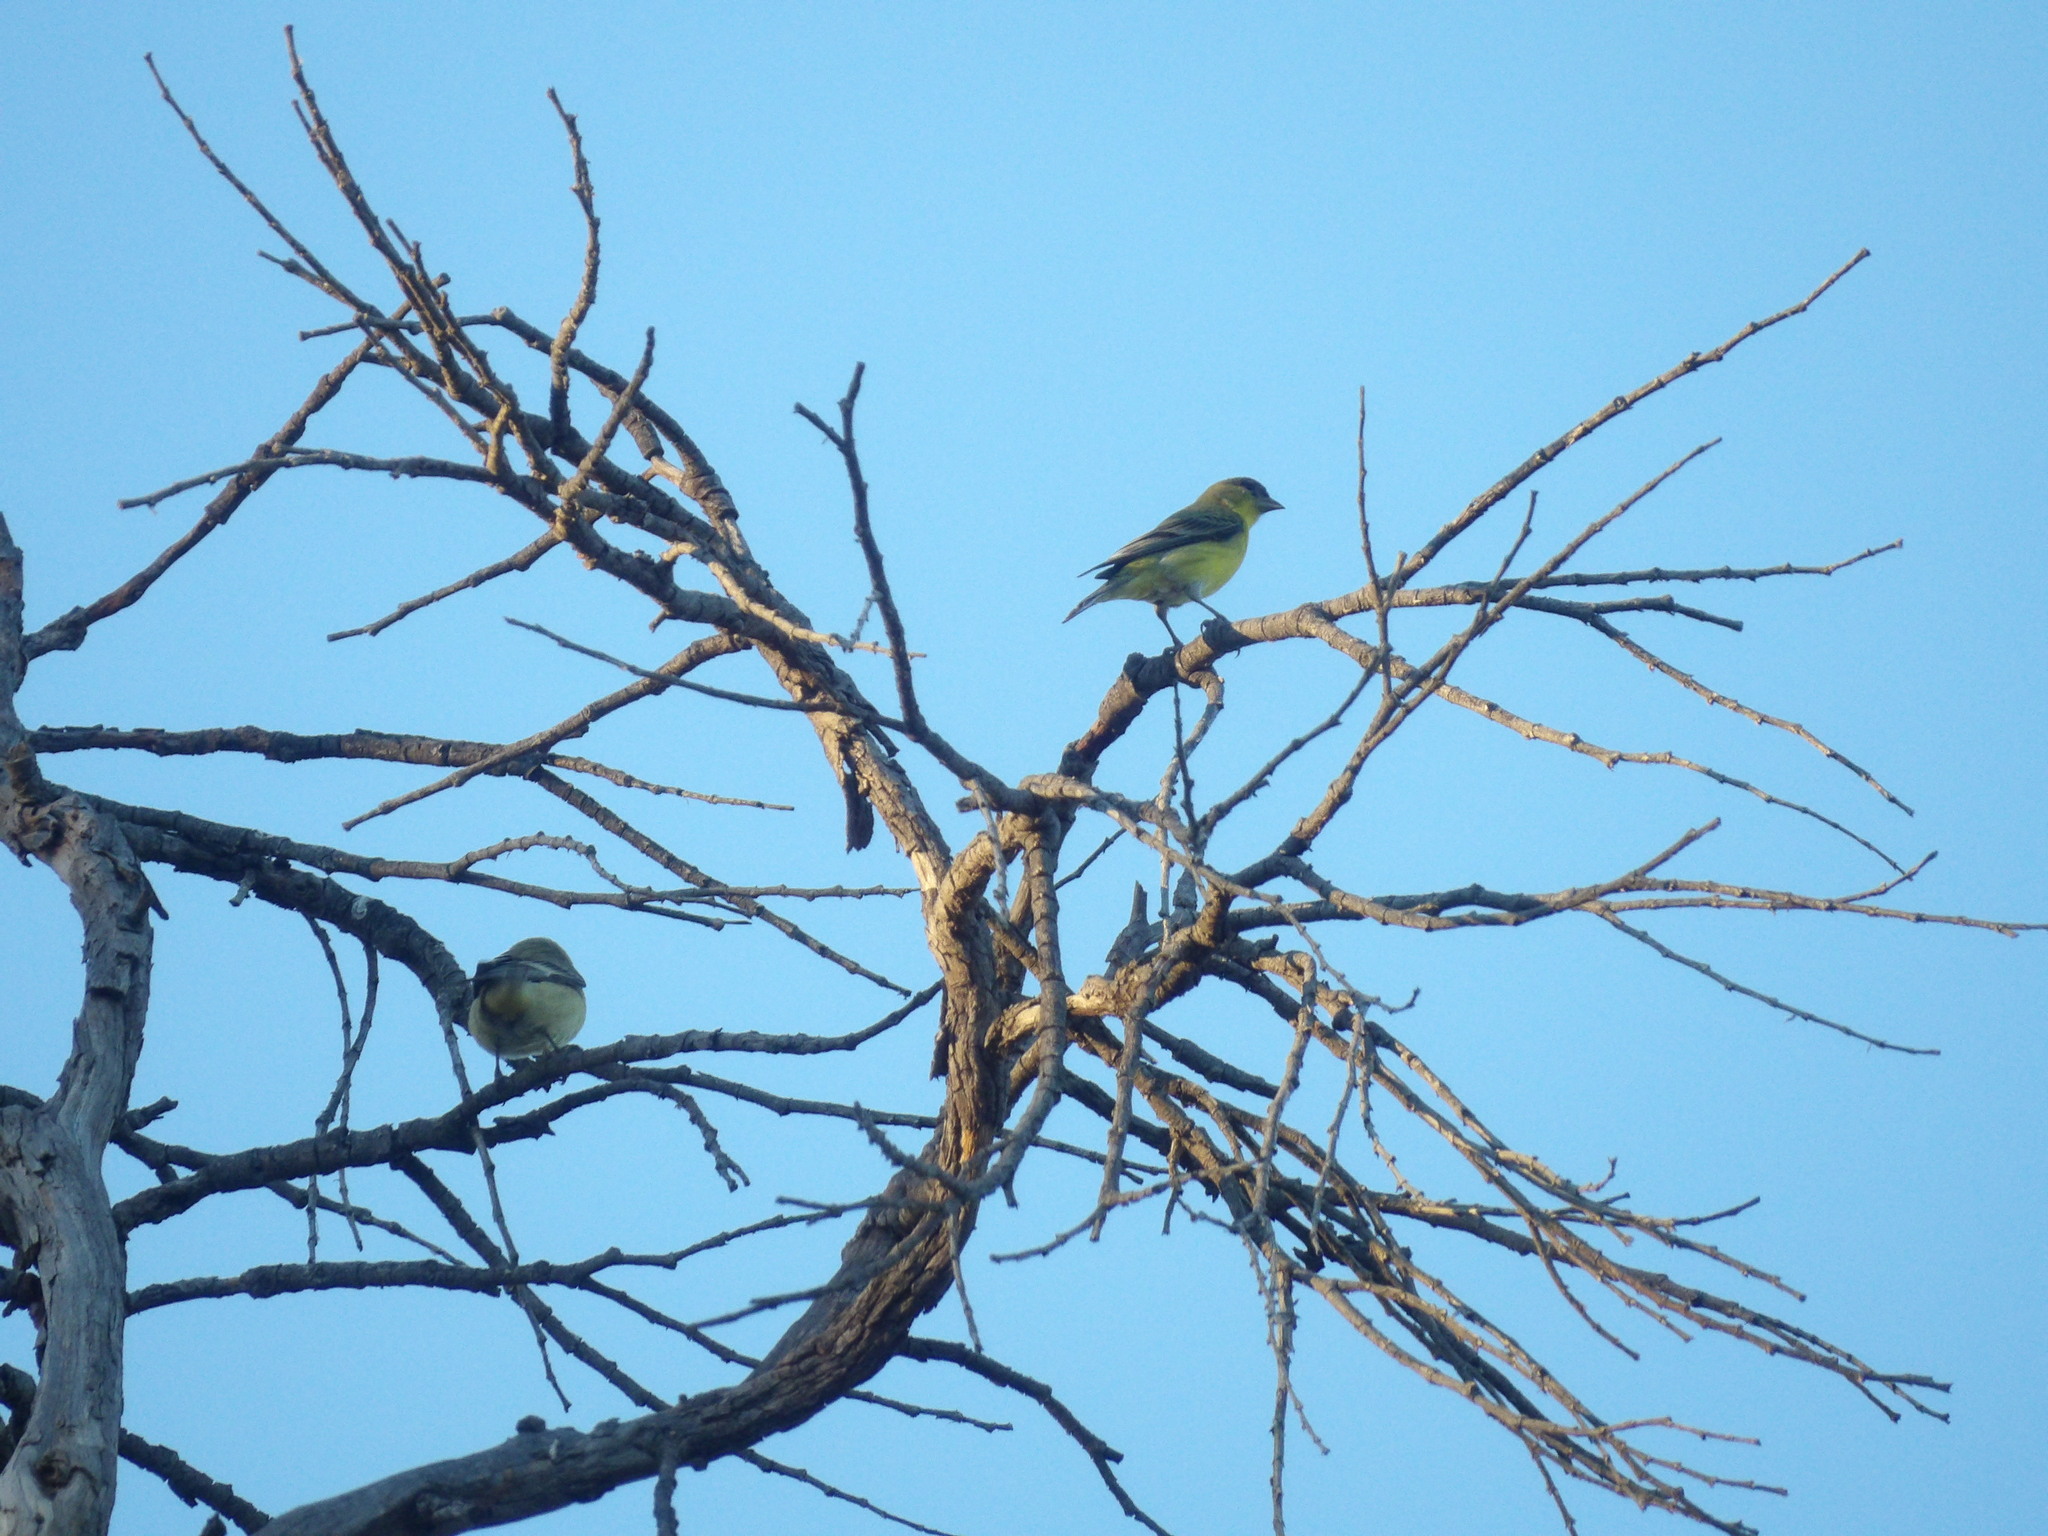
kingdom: Animalia
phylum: Chordata
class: Aves
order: Passeriformes
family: Fringillidae
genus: Spinus
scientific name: Spinus psaltria
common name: Lesser goldfinch
